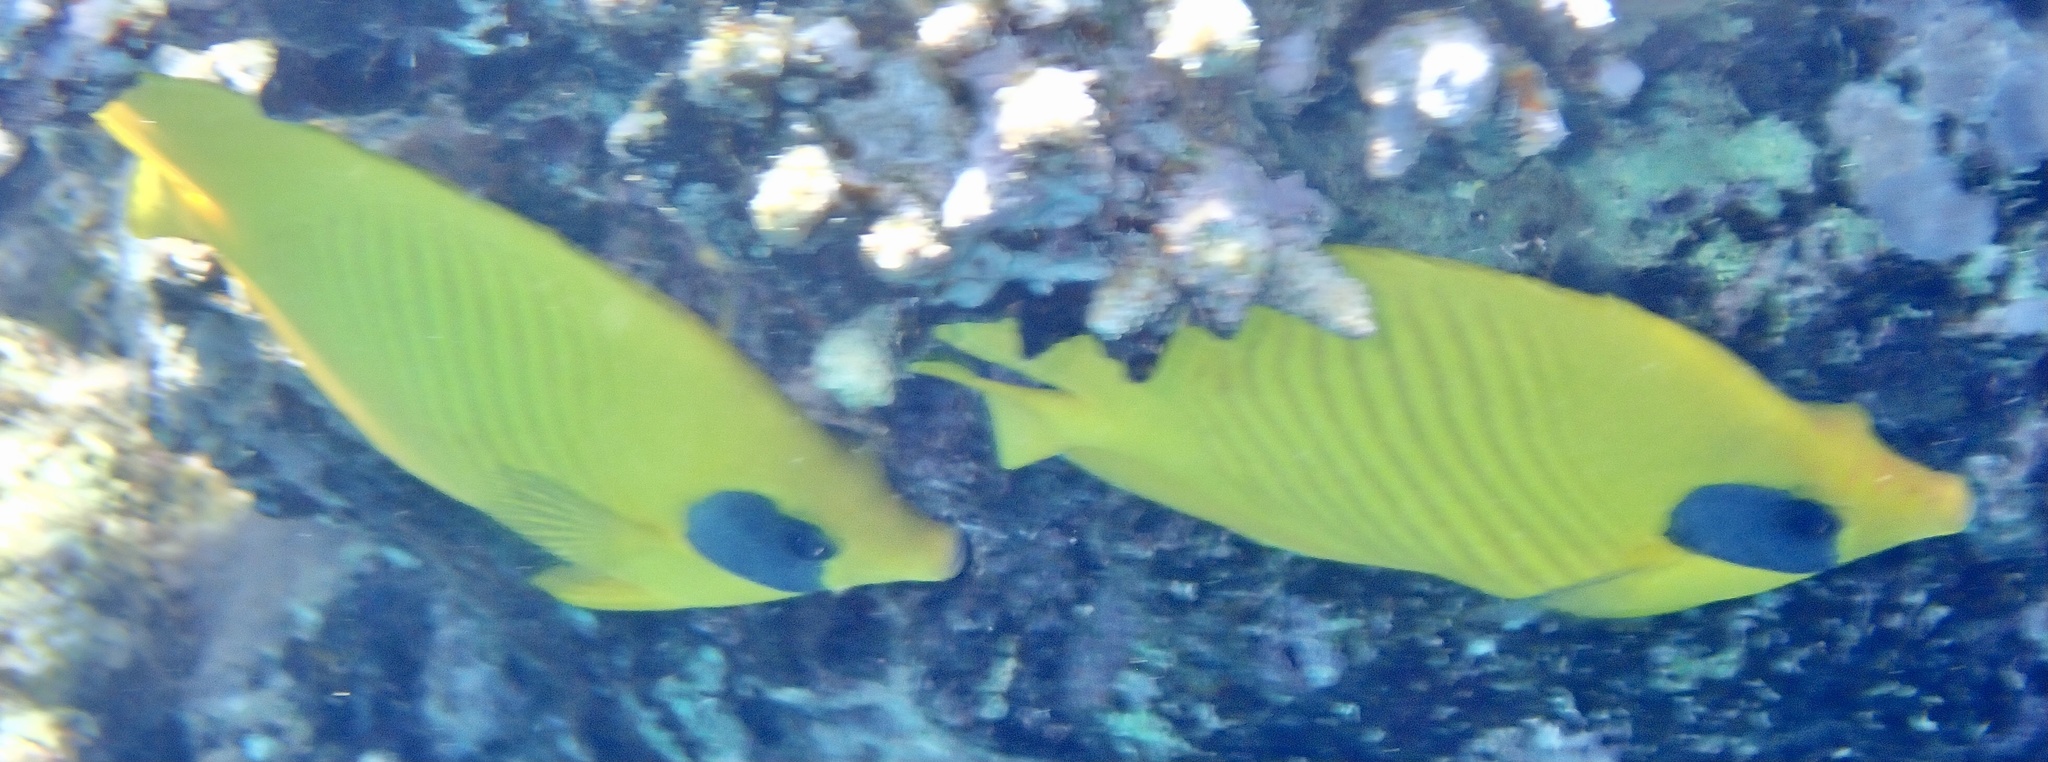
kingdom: Animalia
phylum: Chordata
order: Perciformes
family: Chaetodontidae
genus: Chaetodon
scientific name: Chaetodon semilarvatus
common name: Golden butterflyfish
